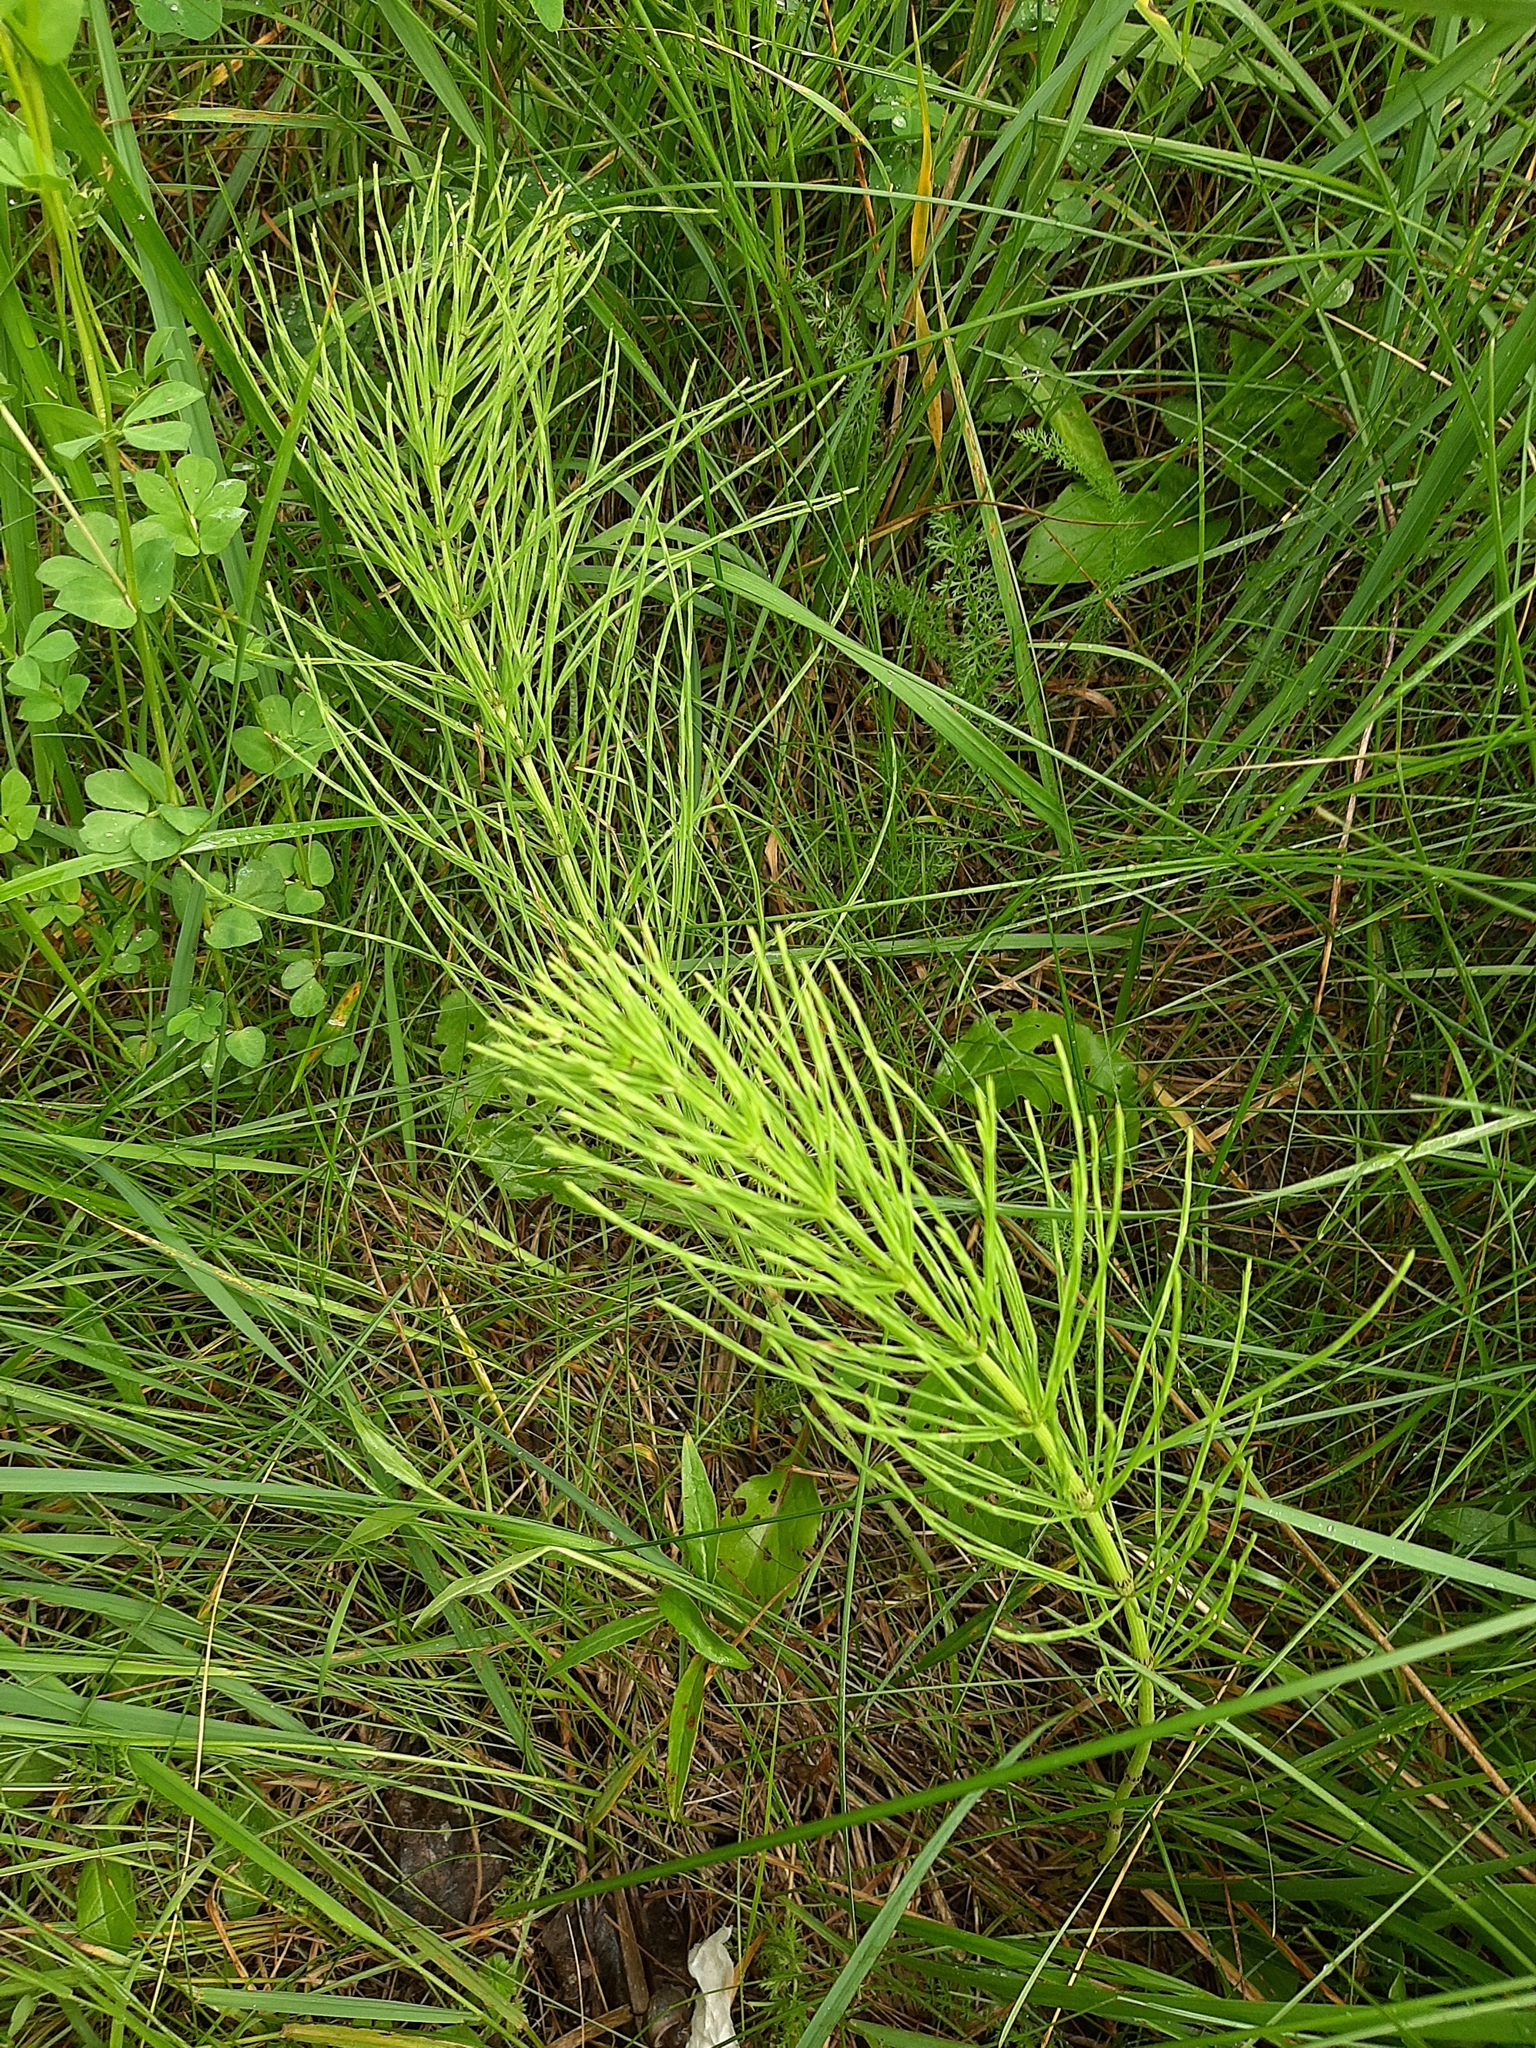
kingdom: Plantae
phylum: Tracheophyta
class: Polypodiopsida
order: Equisetales
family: Equisetaceae
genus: Equisetum
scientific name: Equisetum arvense
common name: Field horsetail
